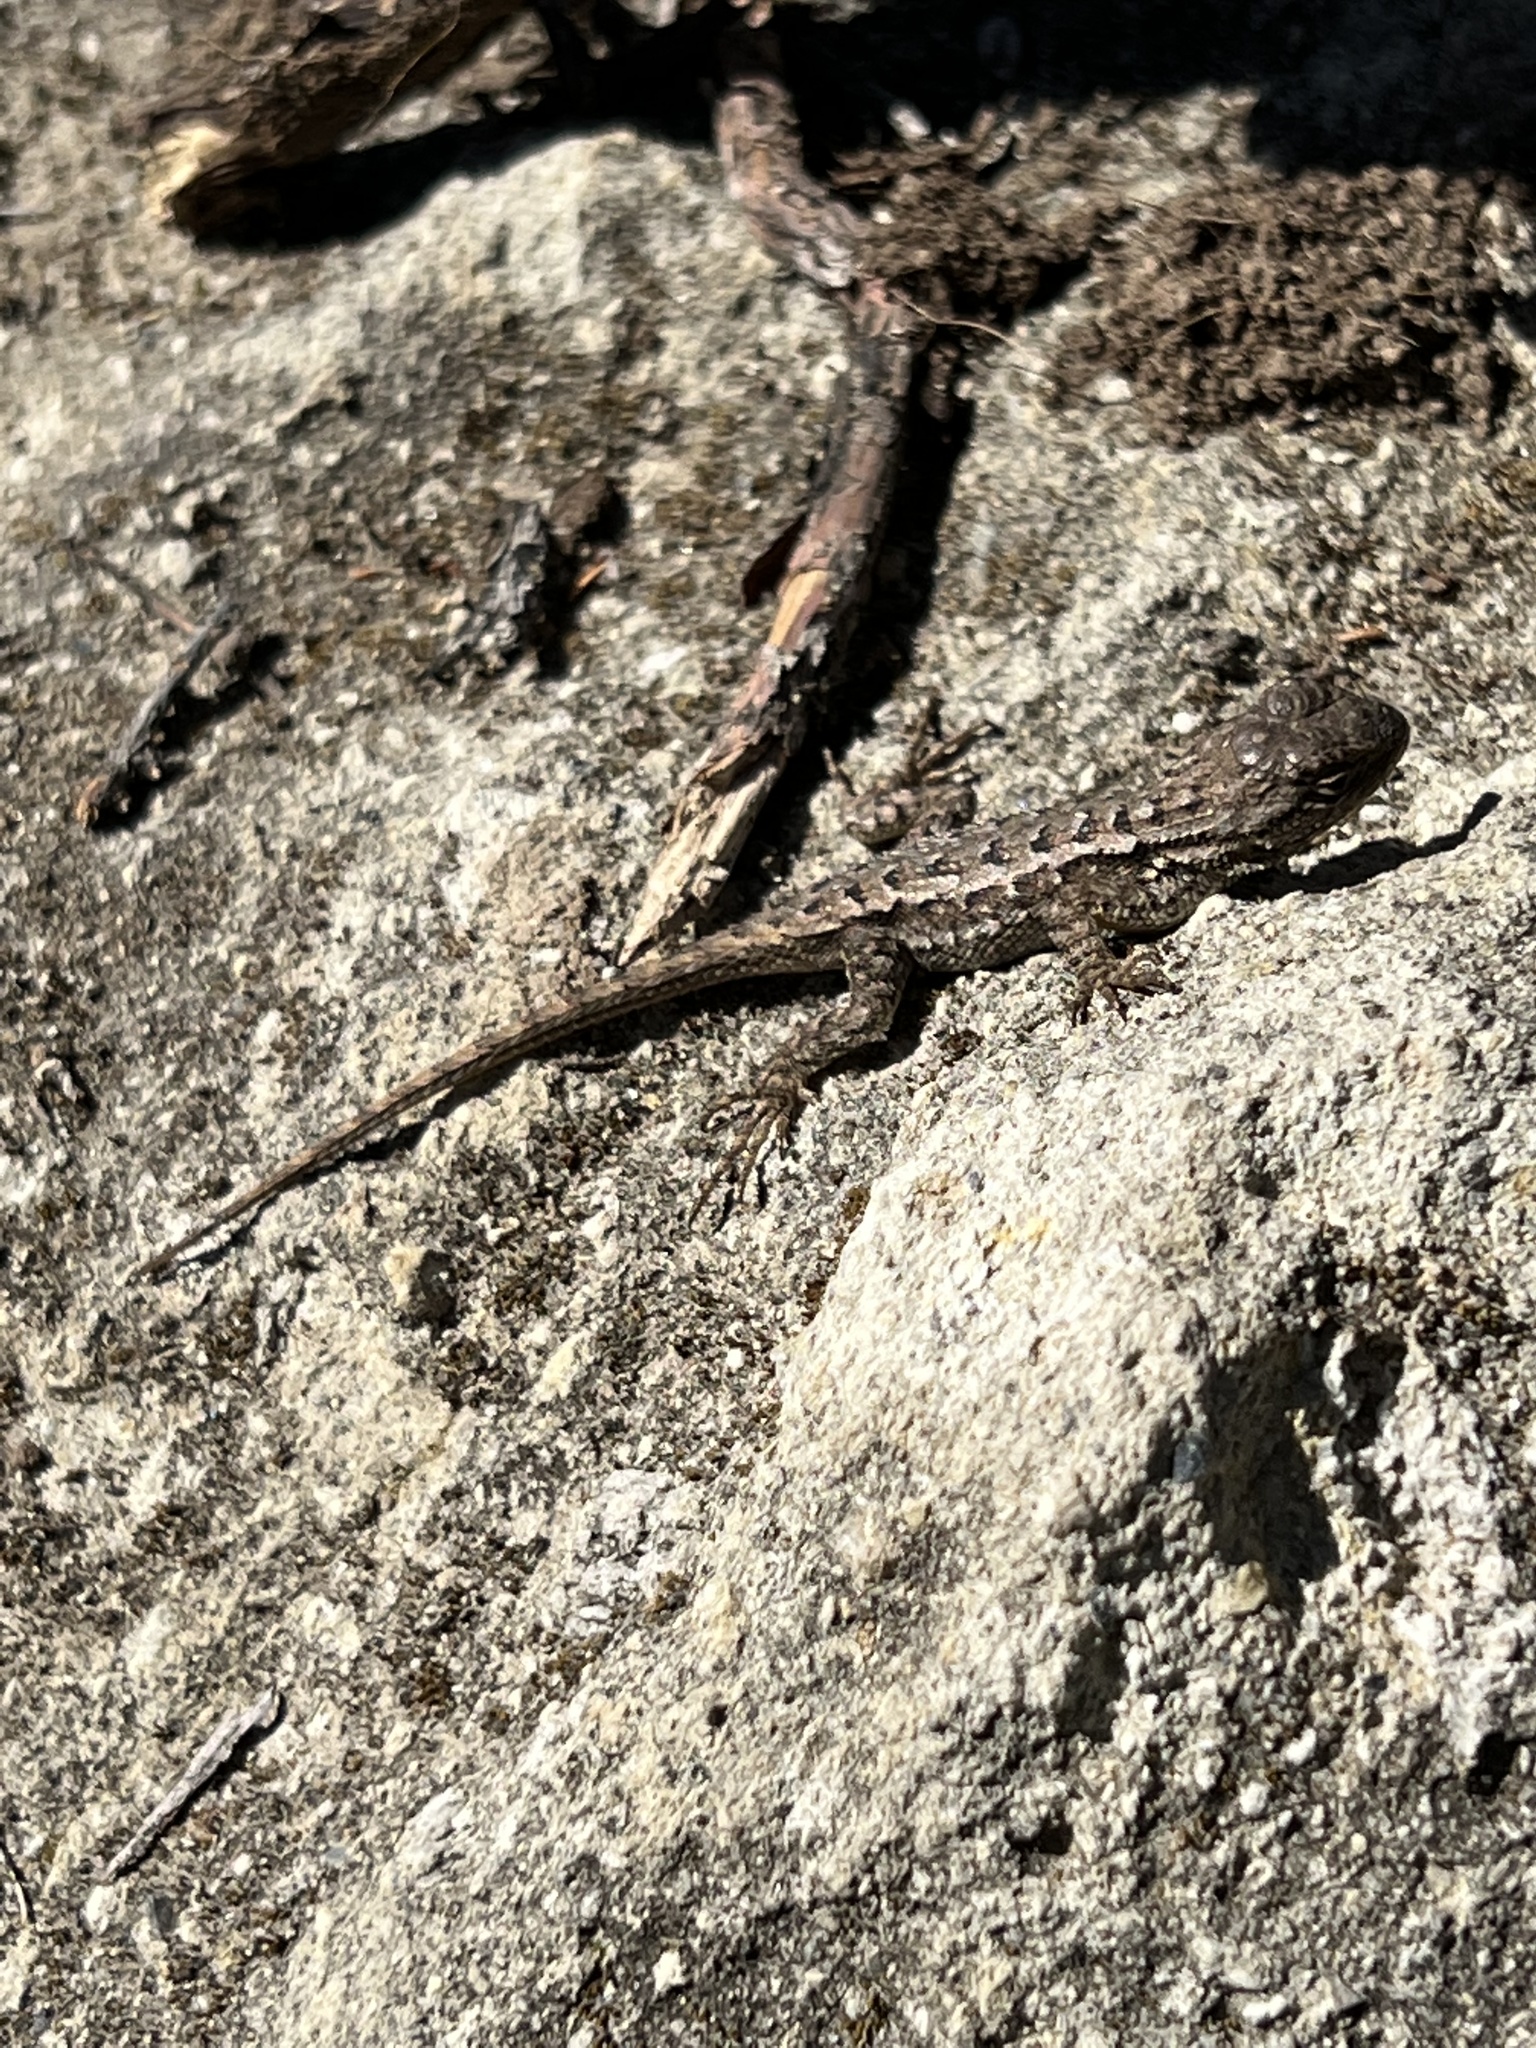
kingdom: Animalia
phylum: Chordata
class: Squamata
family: Phrynosomatidae
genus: Sceloporus
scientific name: Sceloporus occidentalis
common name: Western fence lizard
